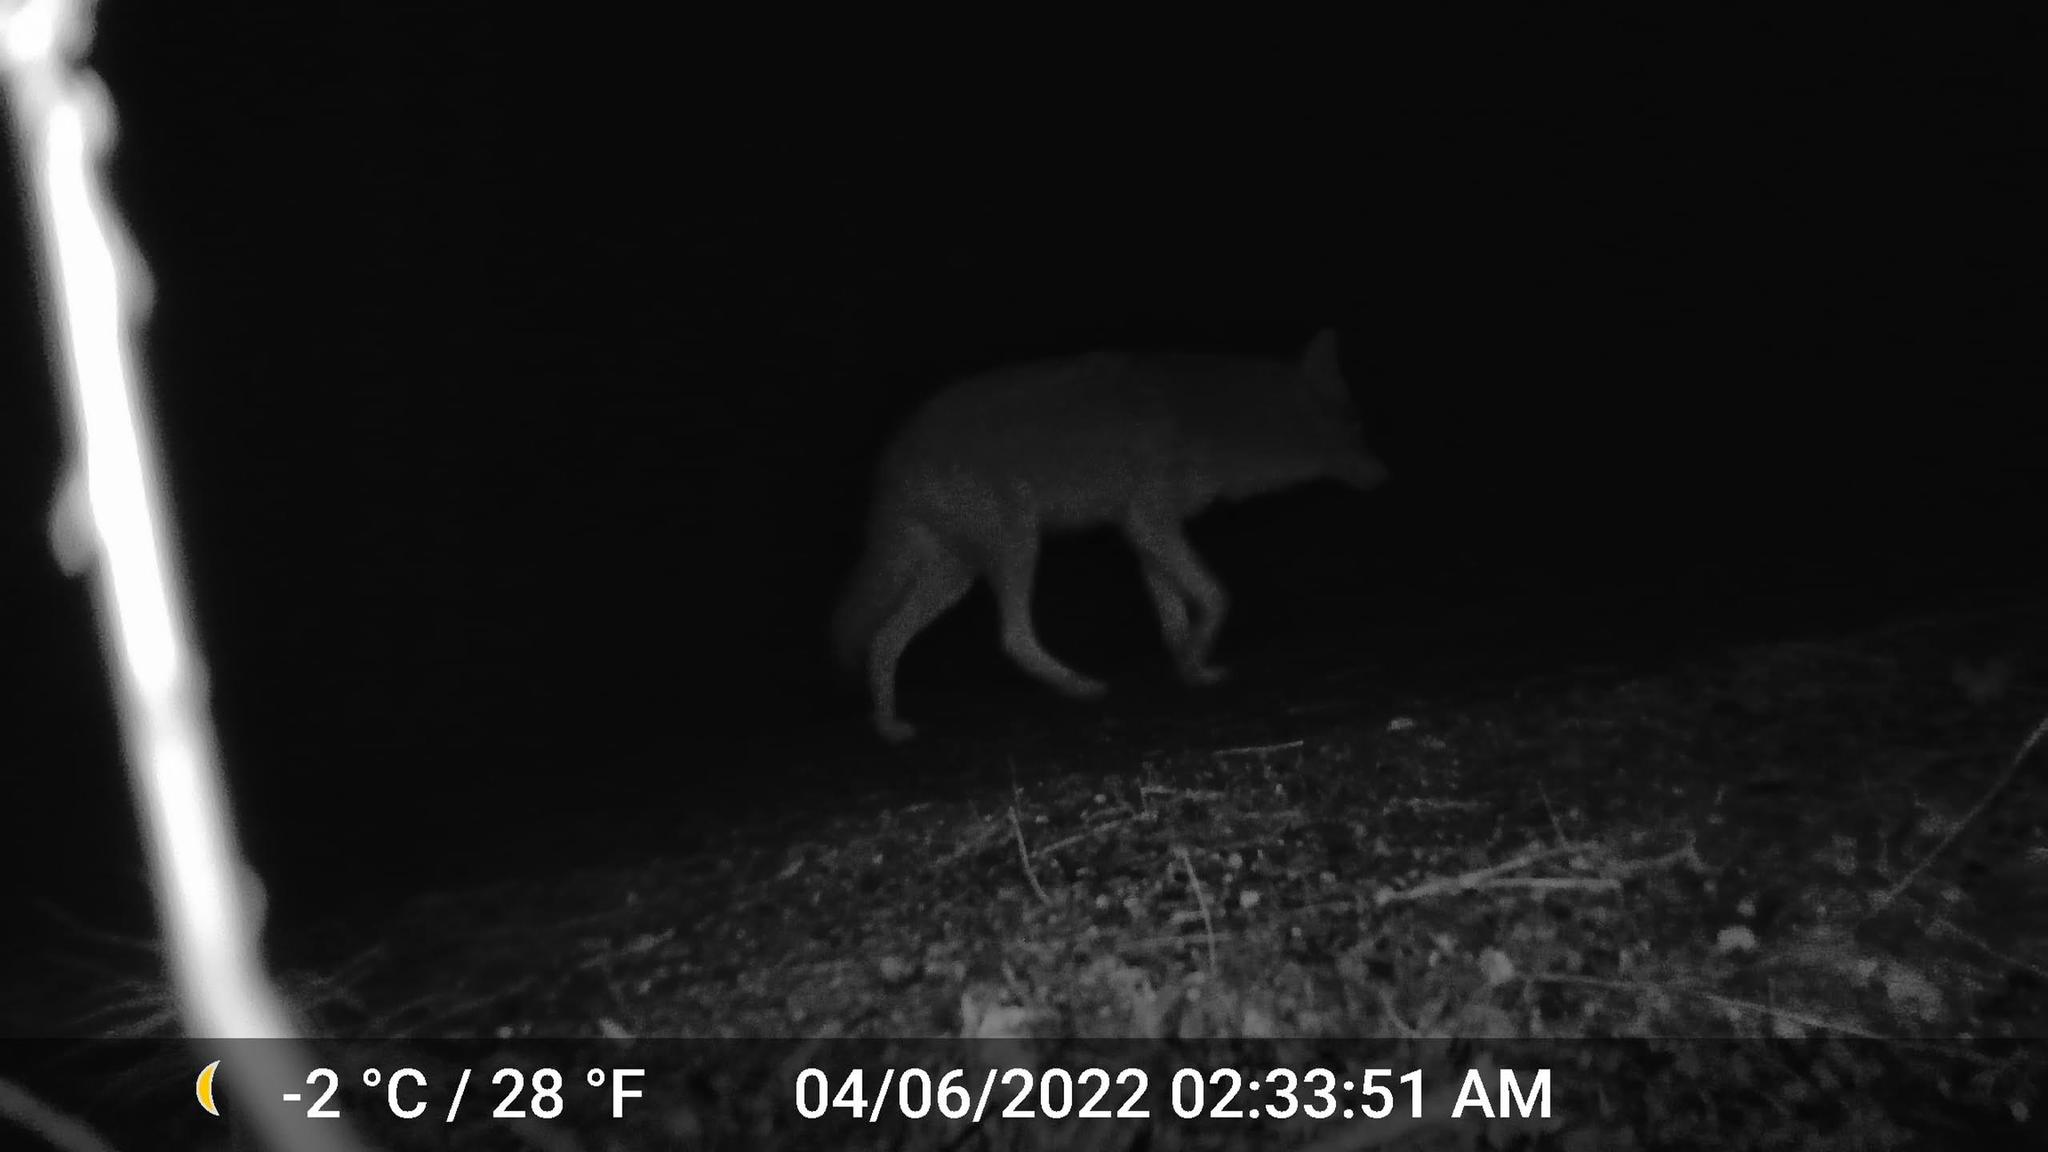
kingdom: Animalia
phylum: Chordata
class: Mammalia
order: Carnivora
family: Canidae
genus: Canis
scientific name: Canis latrans
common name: Coyote
